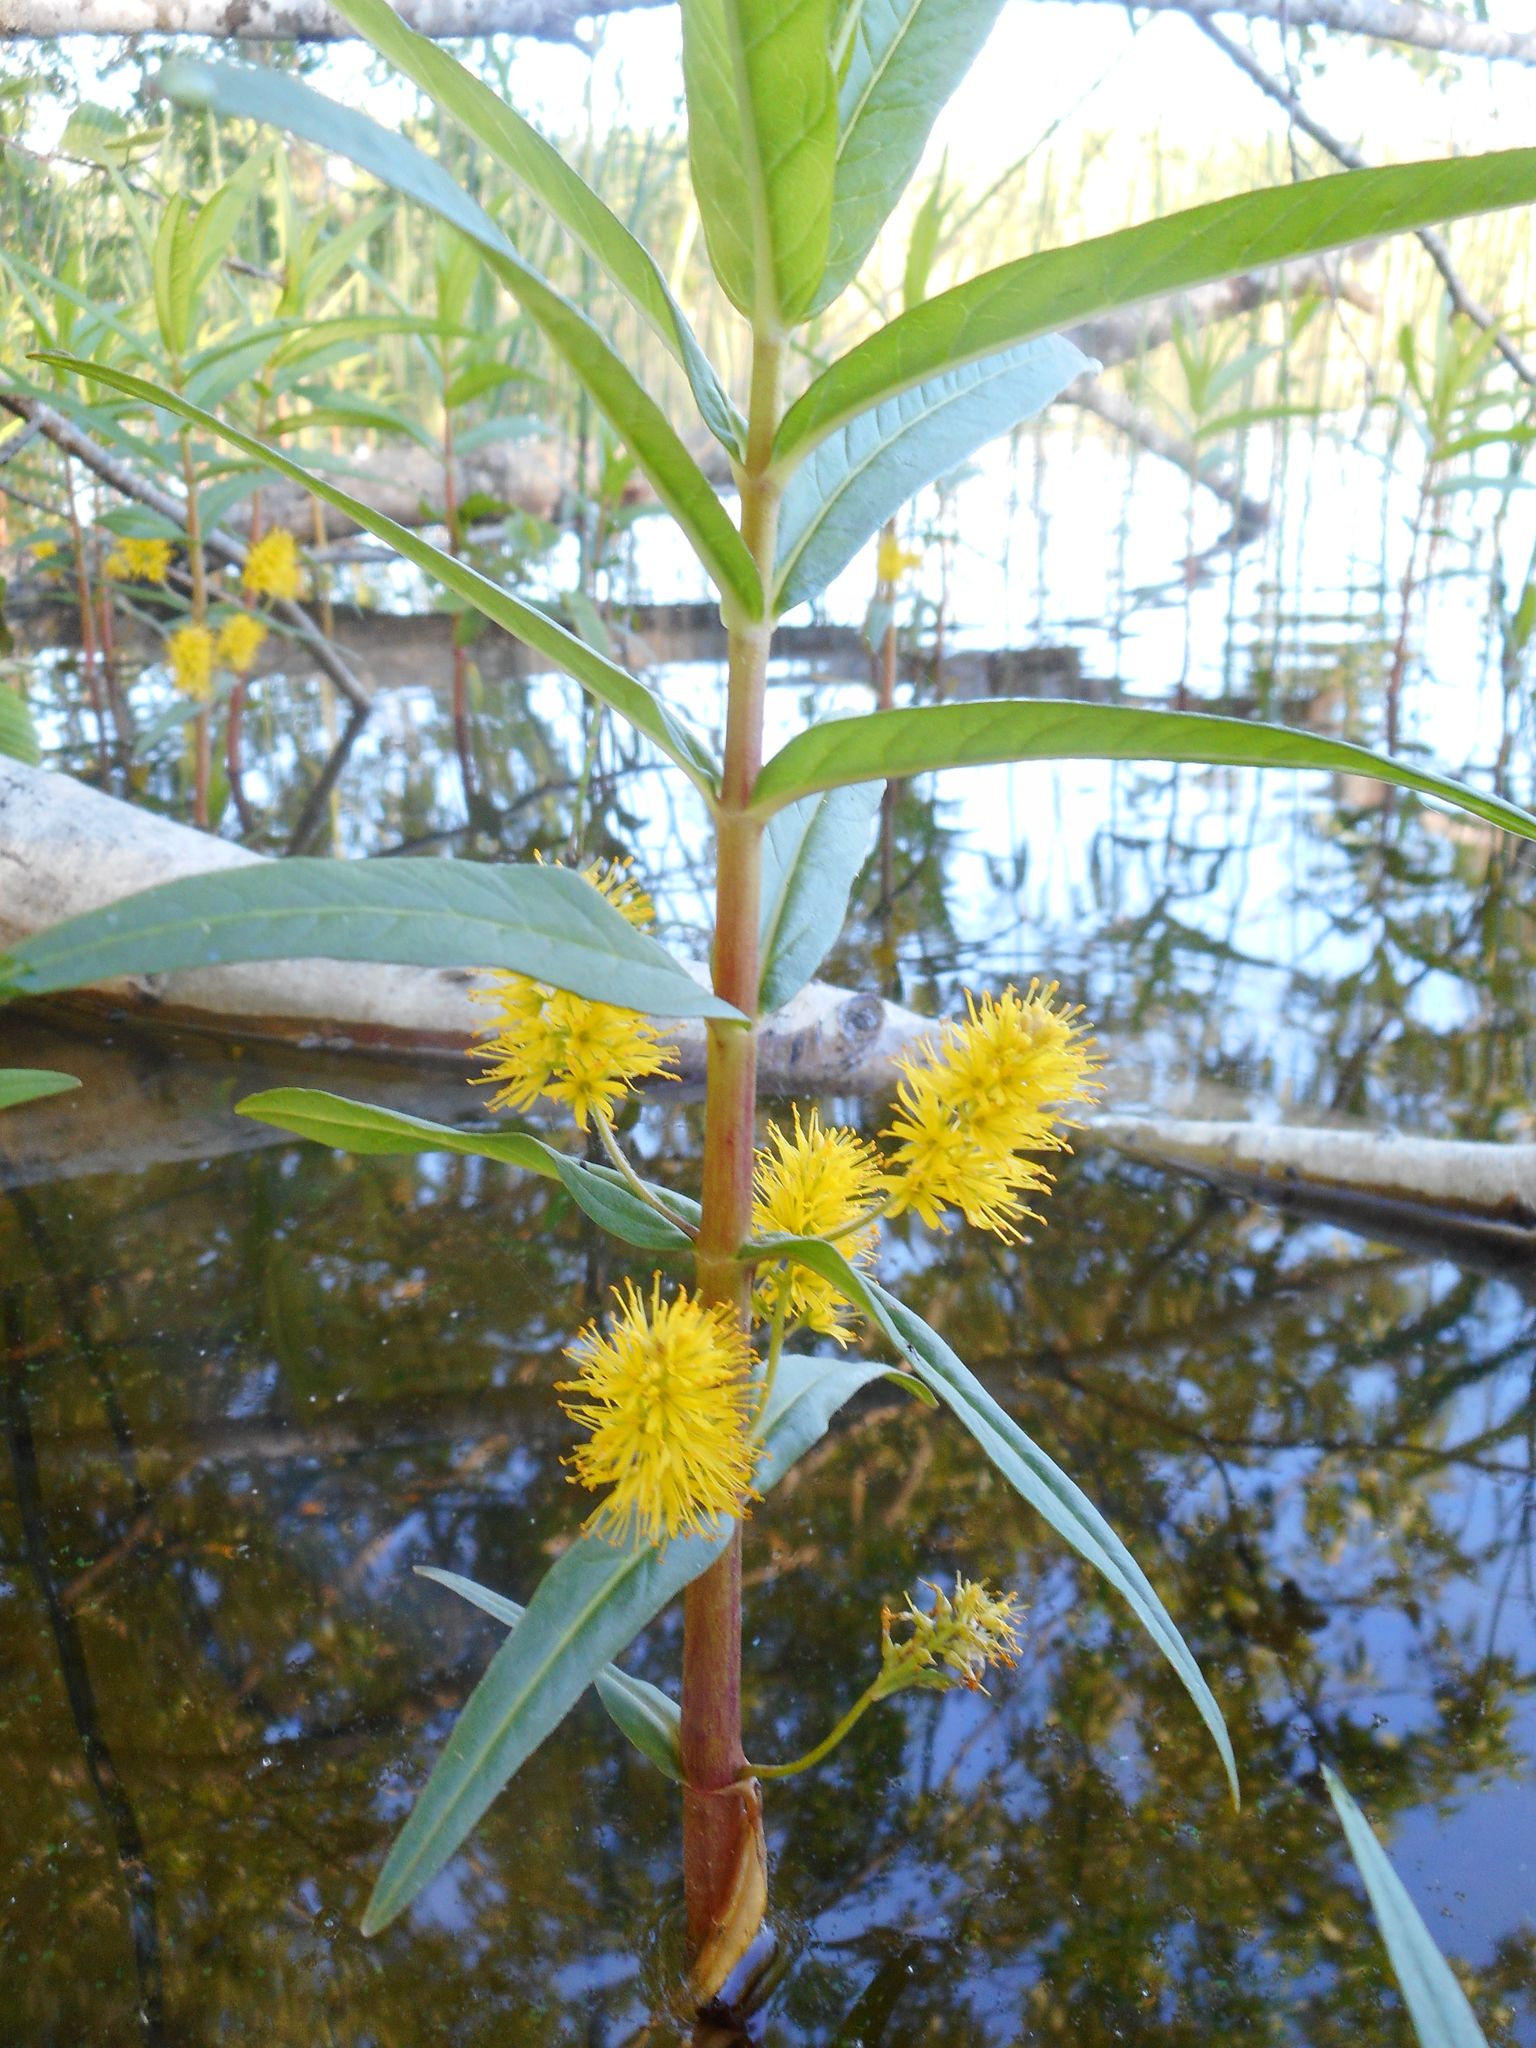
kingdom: Plantae
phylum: Tracheophyta
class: Magnoliopsida
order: Ericales
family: Primulaceae
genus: Lysimachia
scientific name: Lysimachia thyrsiflora
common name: Tufted loosestrife
